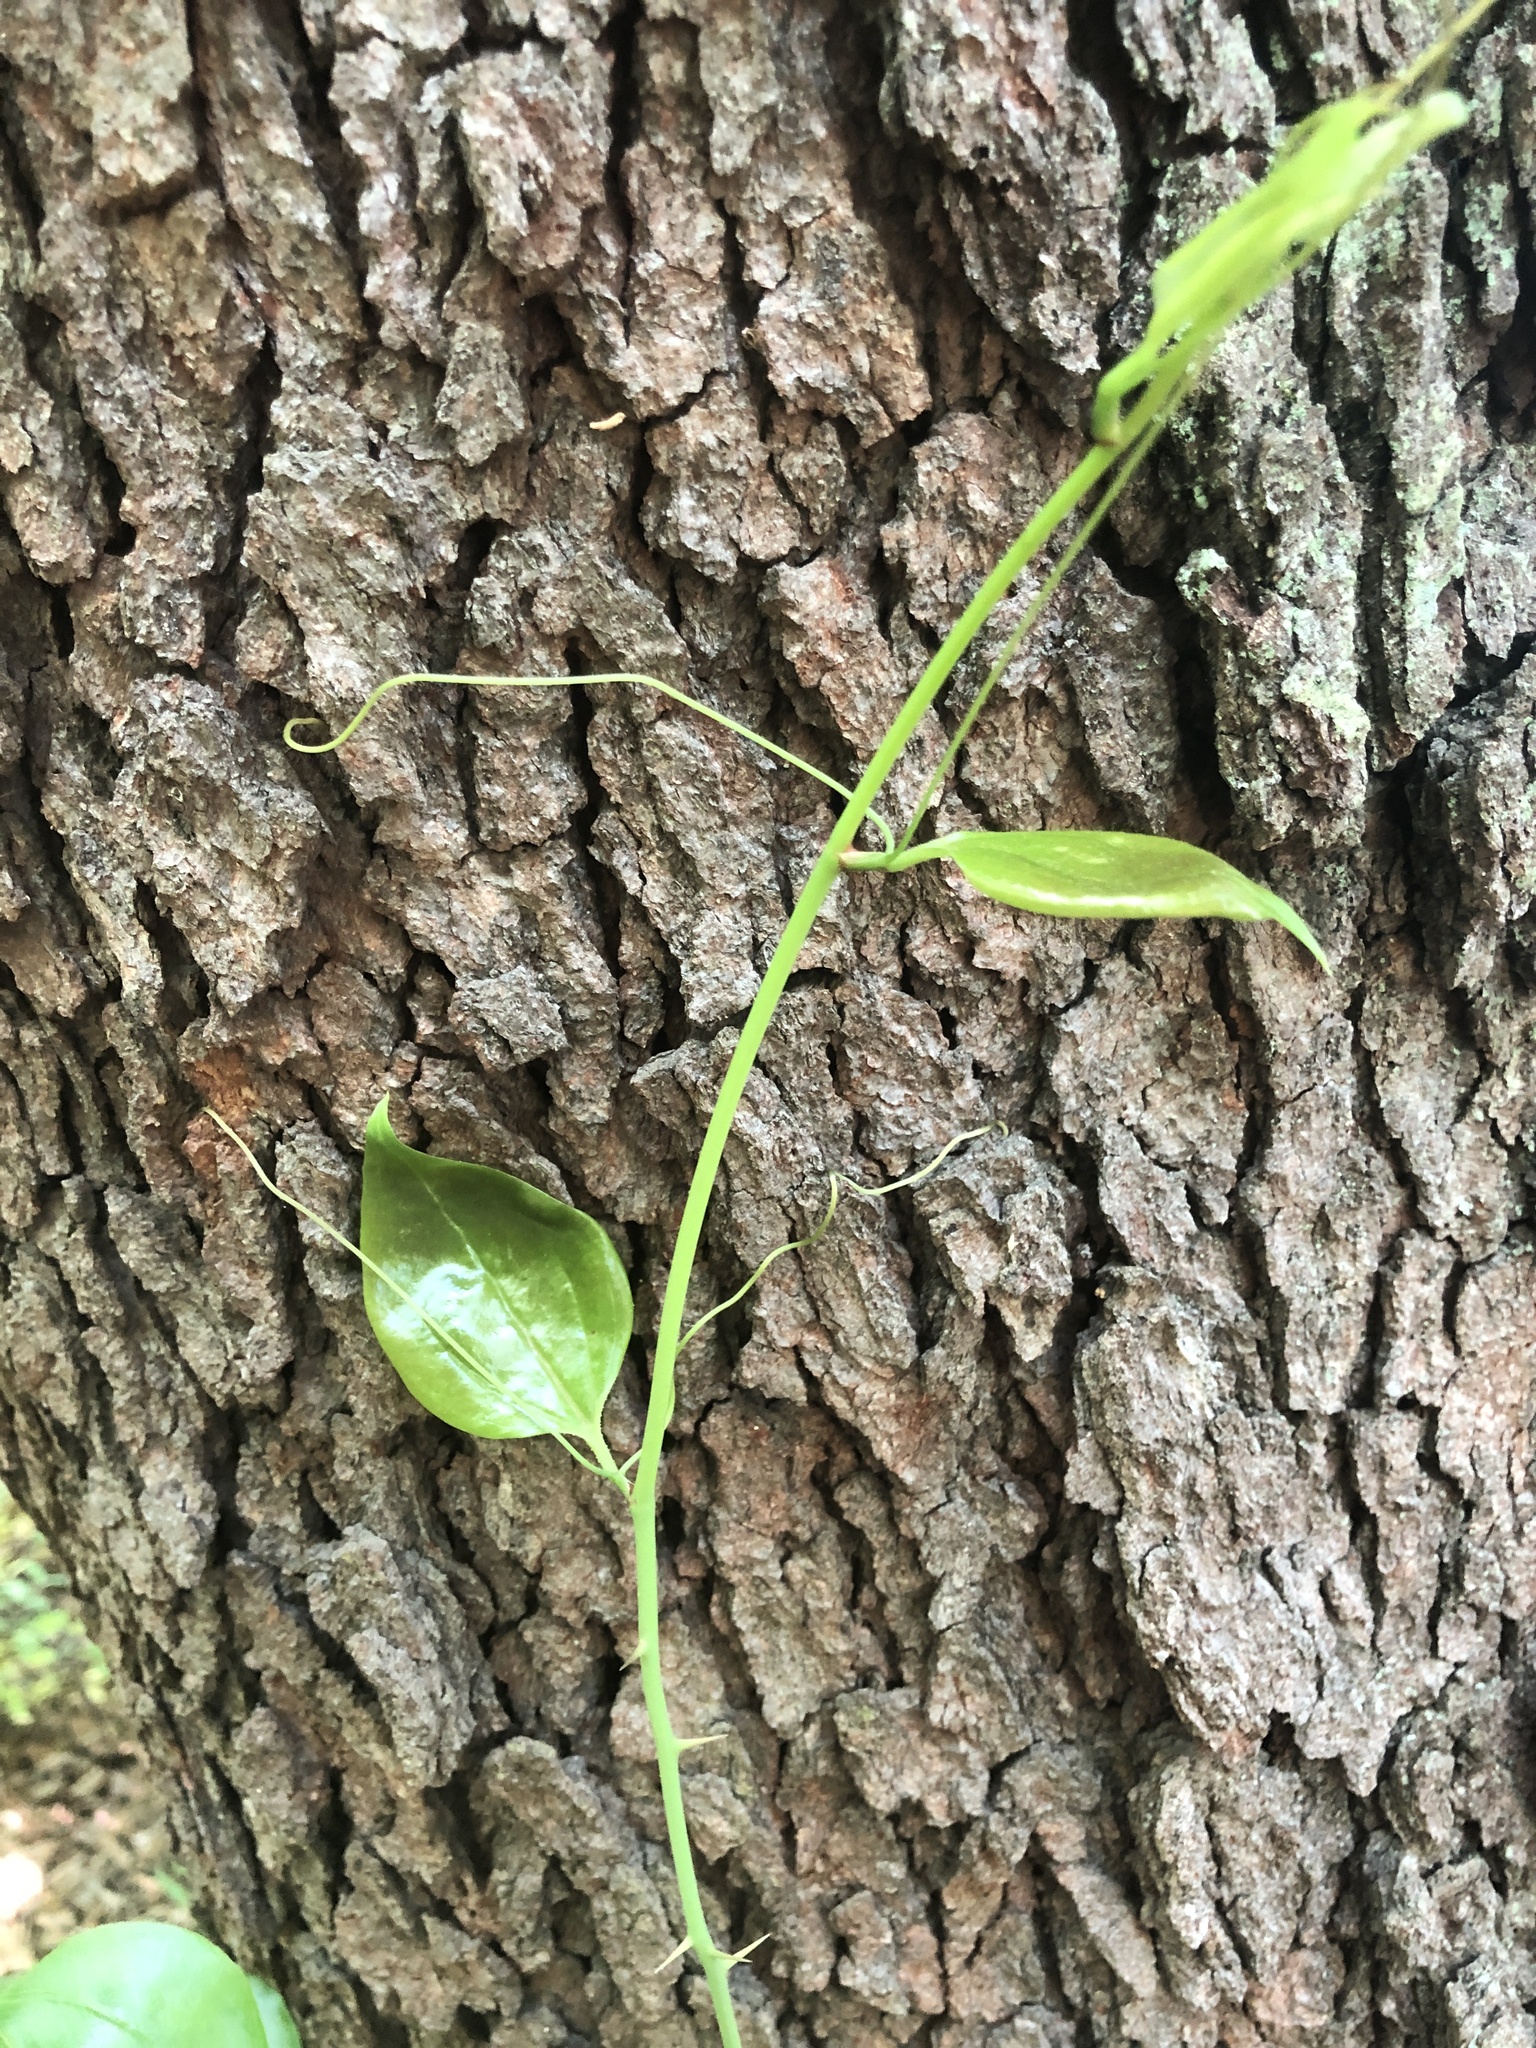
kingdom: Plantae
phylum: Tracheophyta
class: Liliopsida
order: Liliales
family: Smilacaceae
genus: Smilax
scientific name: Smilax rotundifolia
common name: Bullbriar
